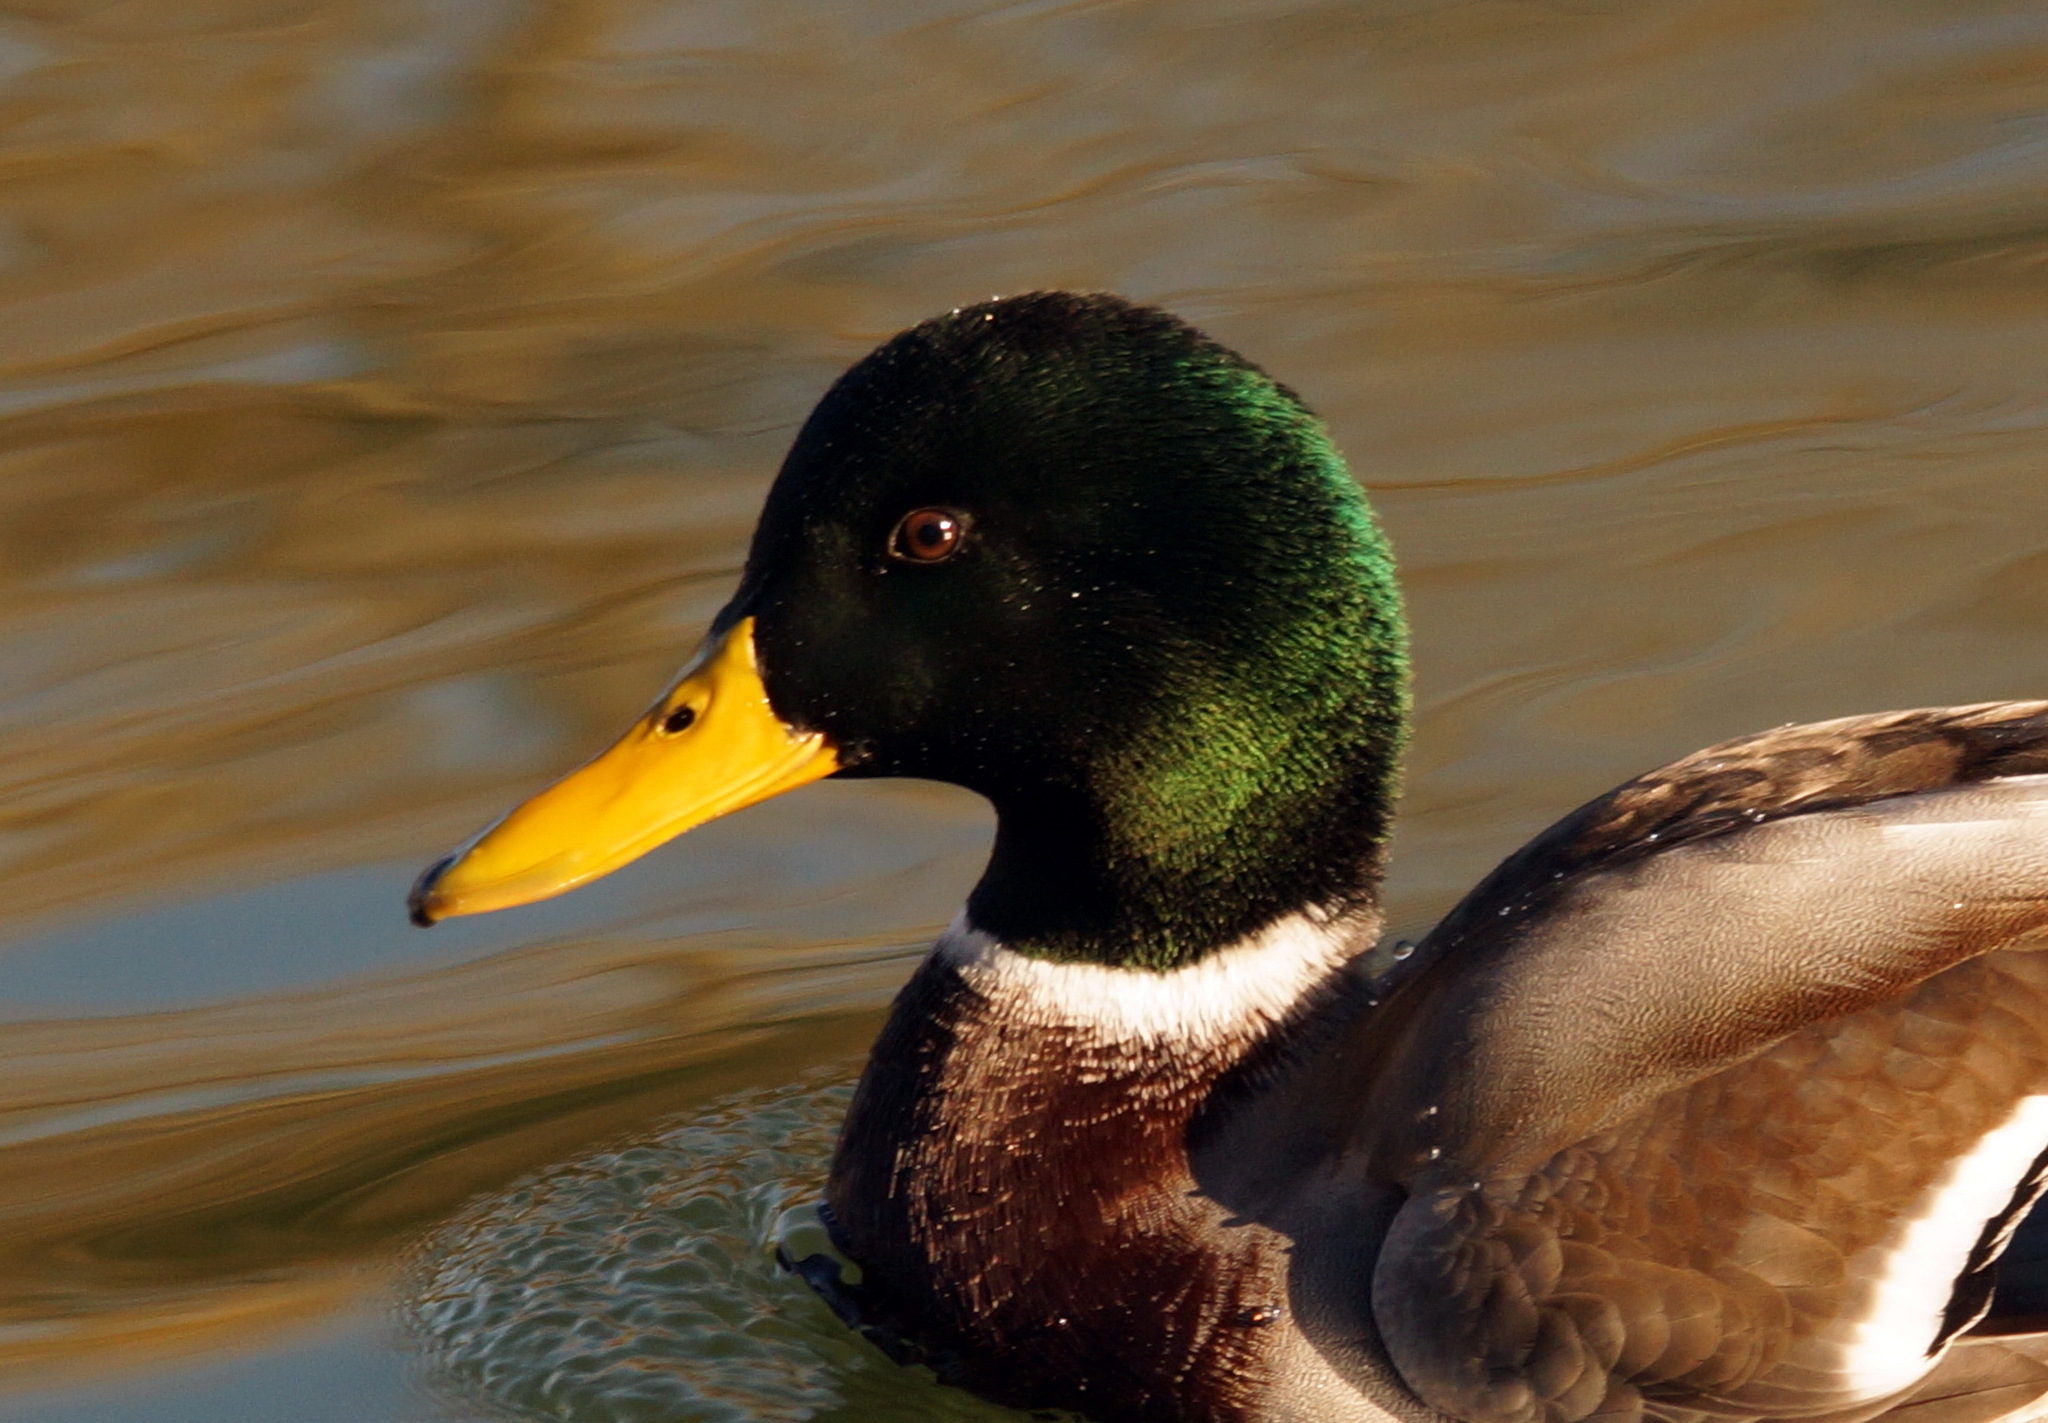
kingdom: Animalia
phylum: Chordata
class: Aves
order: Anseriformes
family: Anatidae
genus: Anas
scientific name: Anas platyrhynchos
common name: Mallard
